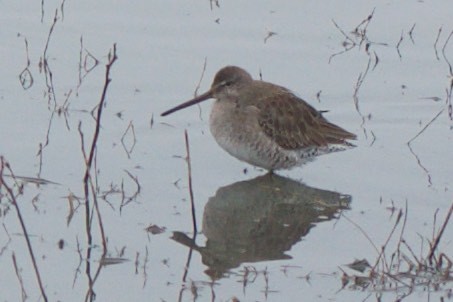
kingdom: Animalia
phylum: Chordata
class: Aves
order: Charadriiformes
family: Scolopacidae
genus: Limnodromus
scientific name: Limnodromus scolopaceus
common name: Long-billed dowitcher
